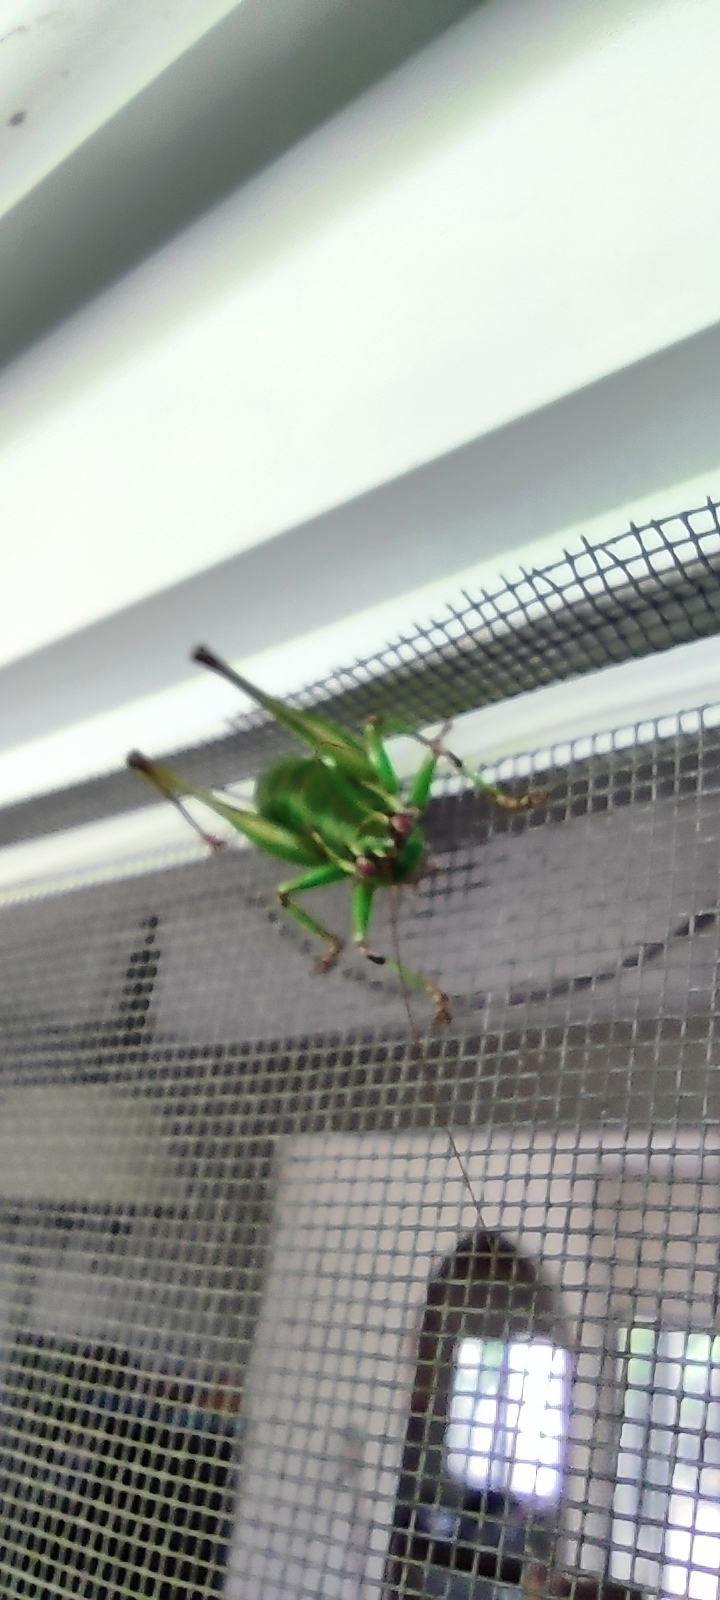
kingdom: Animalia
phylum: Arthropoda
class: Insecta
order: Orthoptera
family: Tettigoniidae
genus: Eupholidoptera
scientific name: Eupholidoptera kykladica
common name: Cyclades marbled bush-cricket
